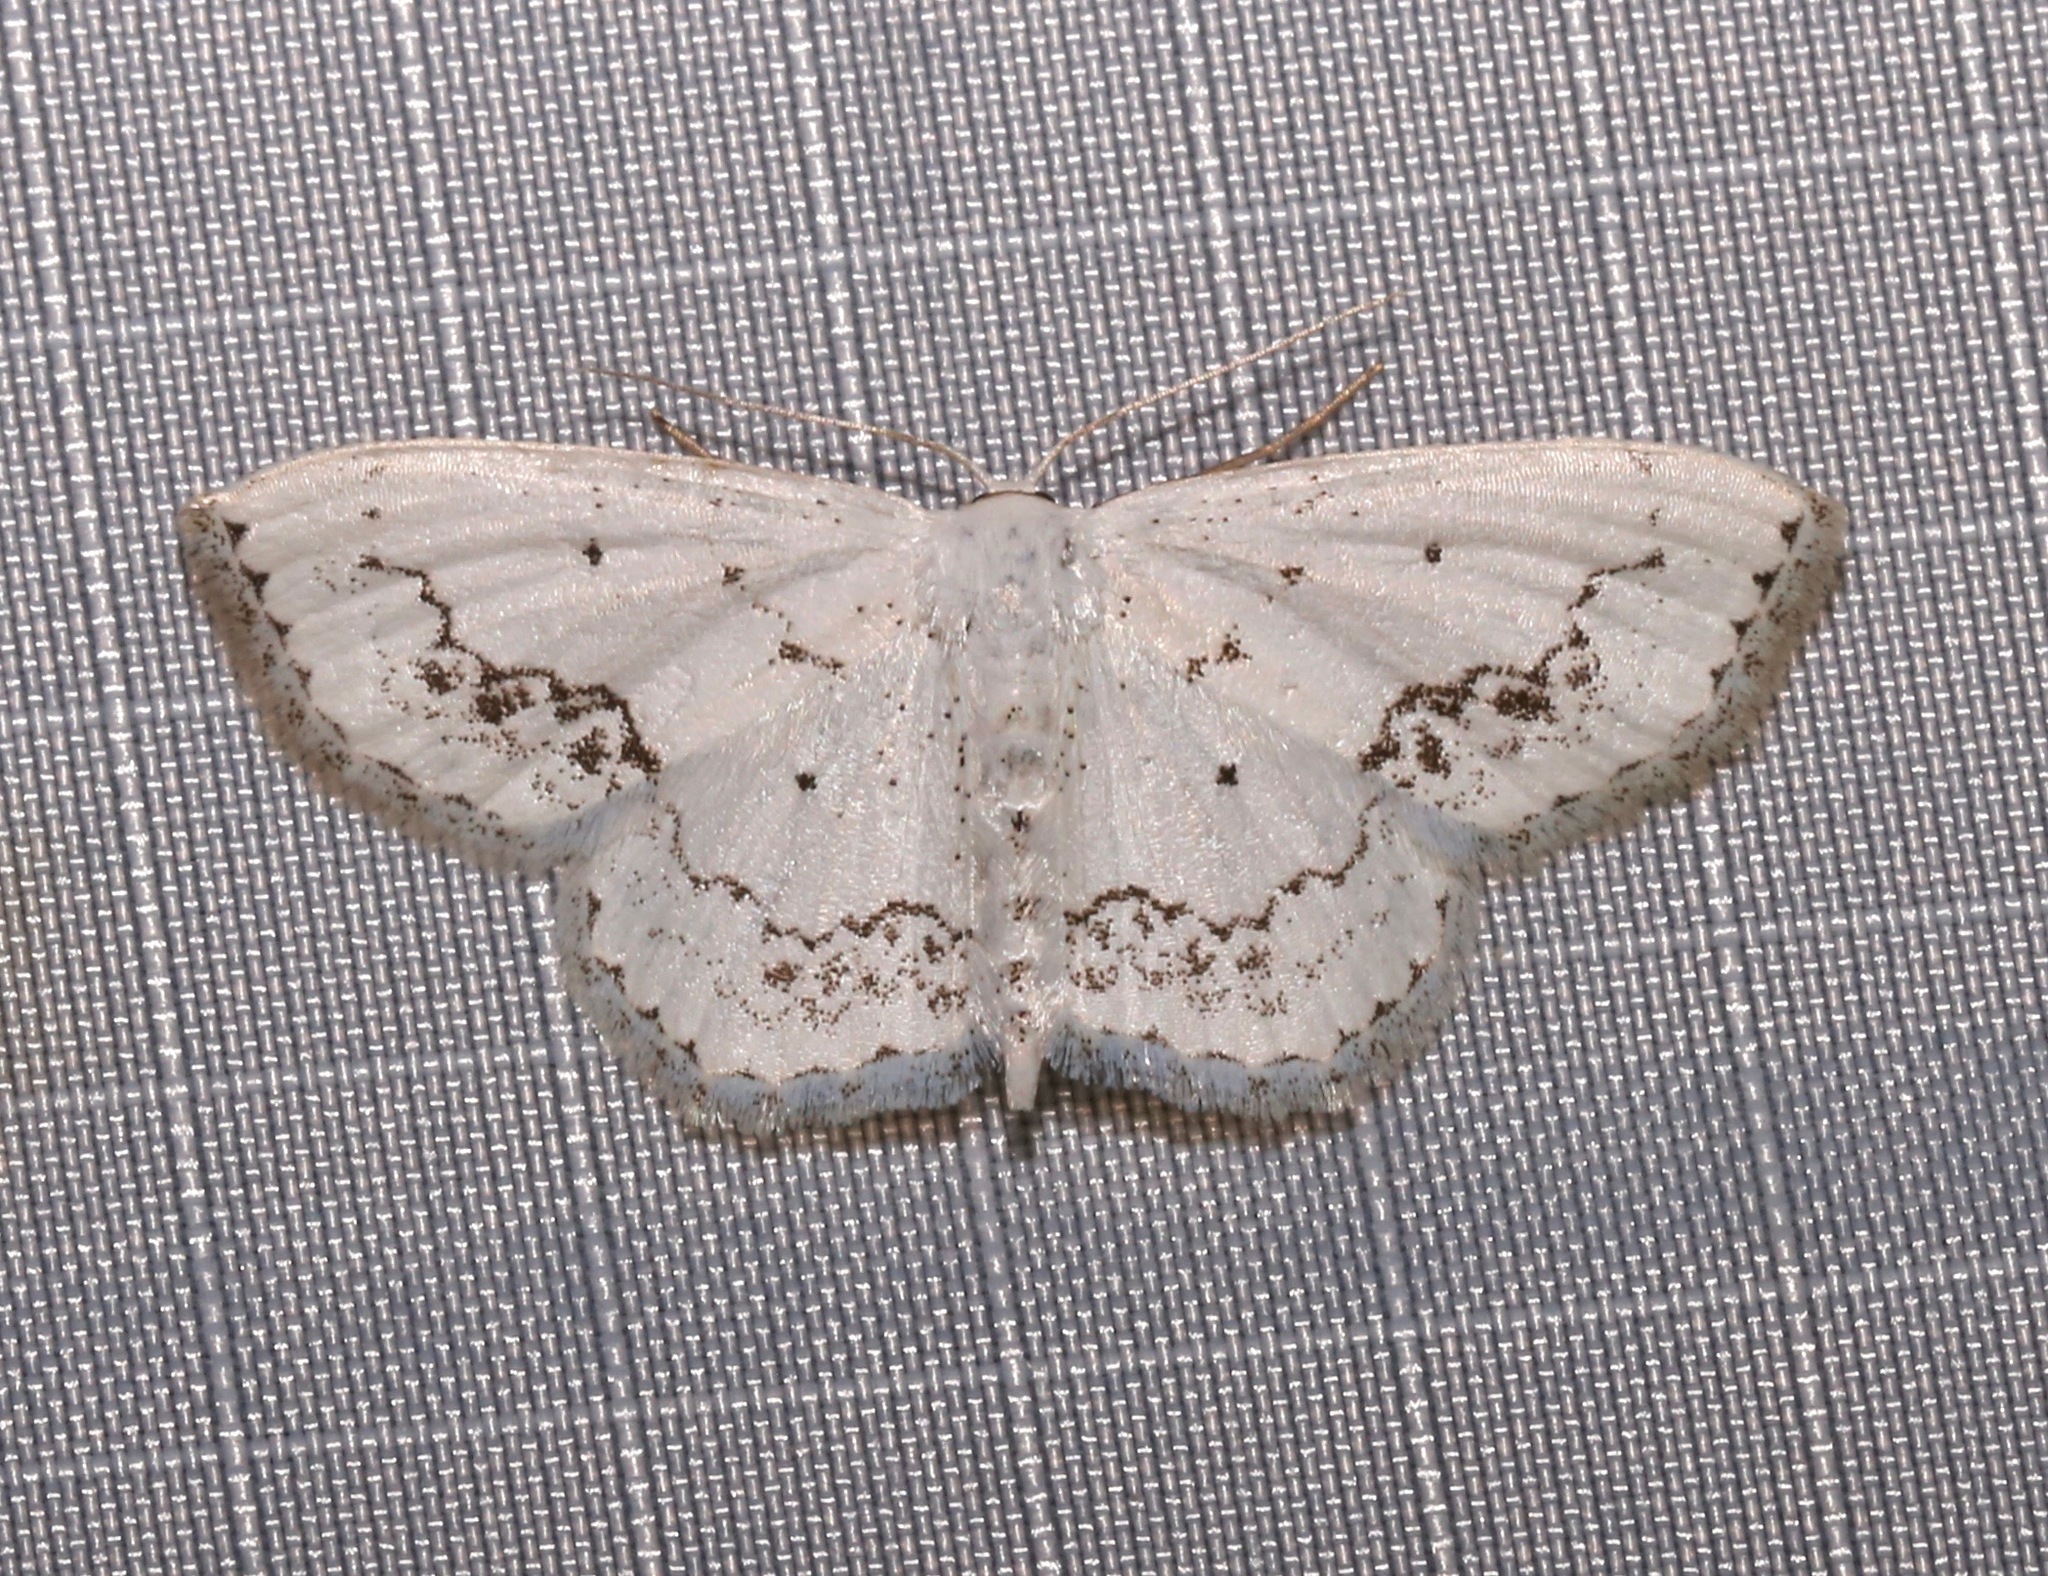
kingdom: Animalia
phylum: Arthropoda
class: Insecta
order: Lepidoptera
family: Geometridae
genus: Scopula
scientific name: Scopula purata
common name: Chalky wave moth
